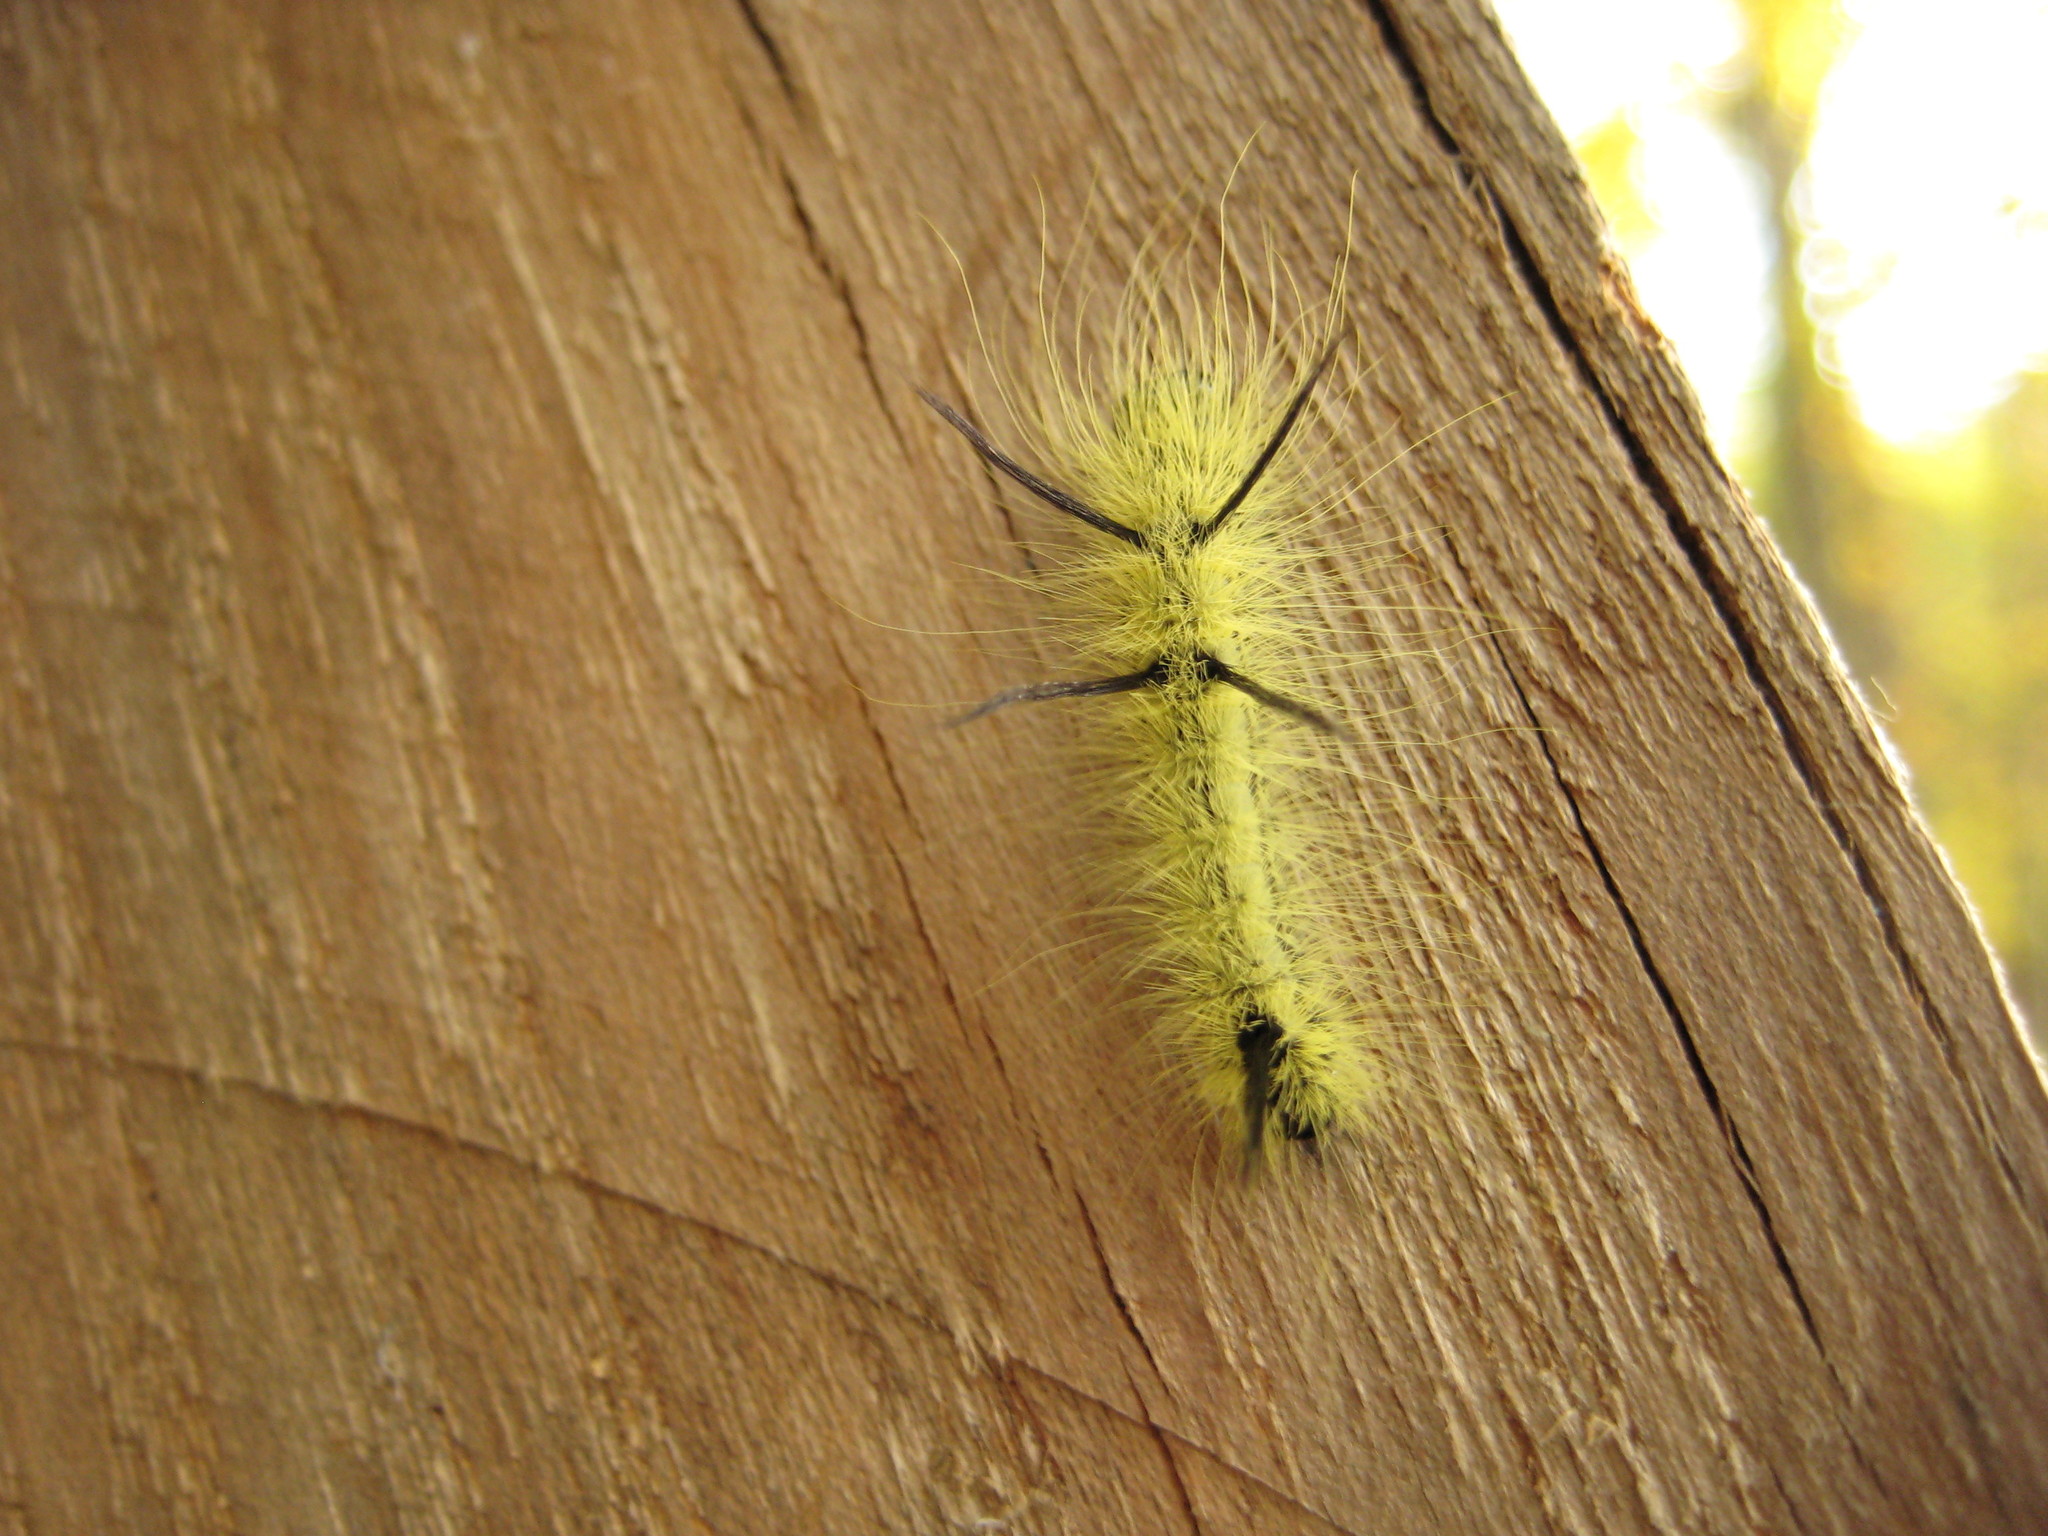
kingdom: Animalia
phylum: Arthropoda
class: Insecta
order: Lepidoptera
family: Noctuidae
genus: Acronicta
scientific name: Acronicta americana
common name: American dagger
